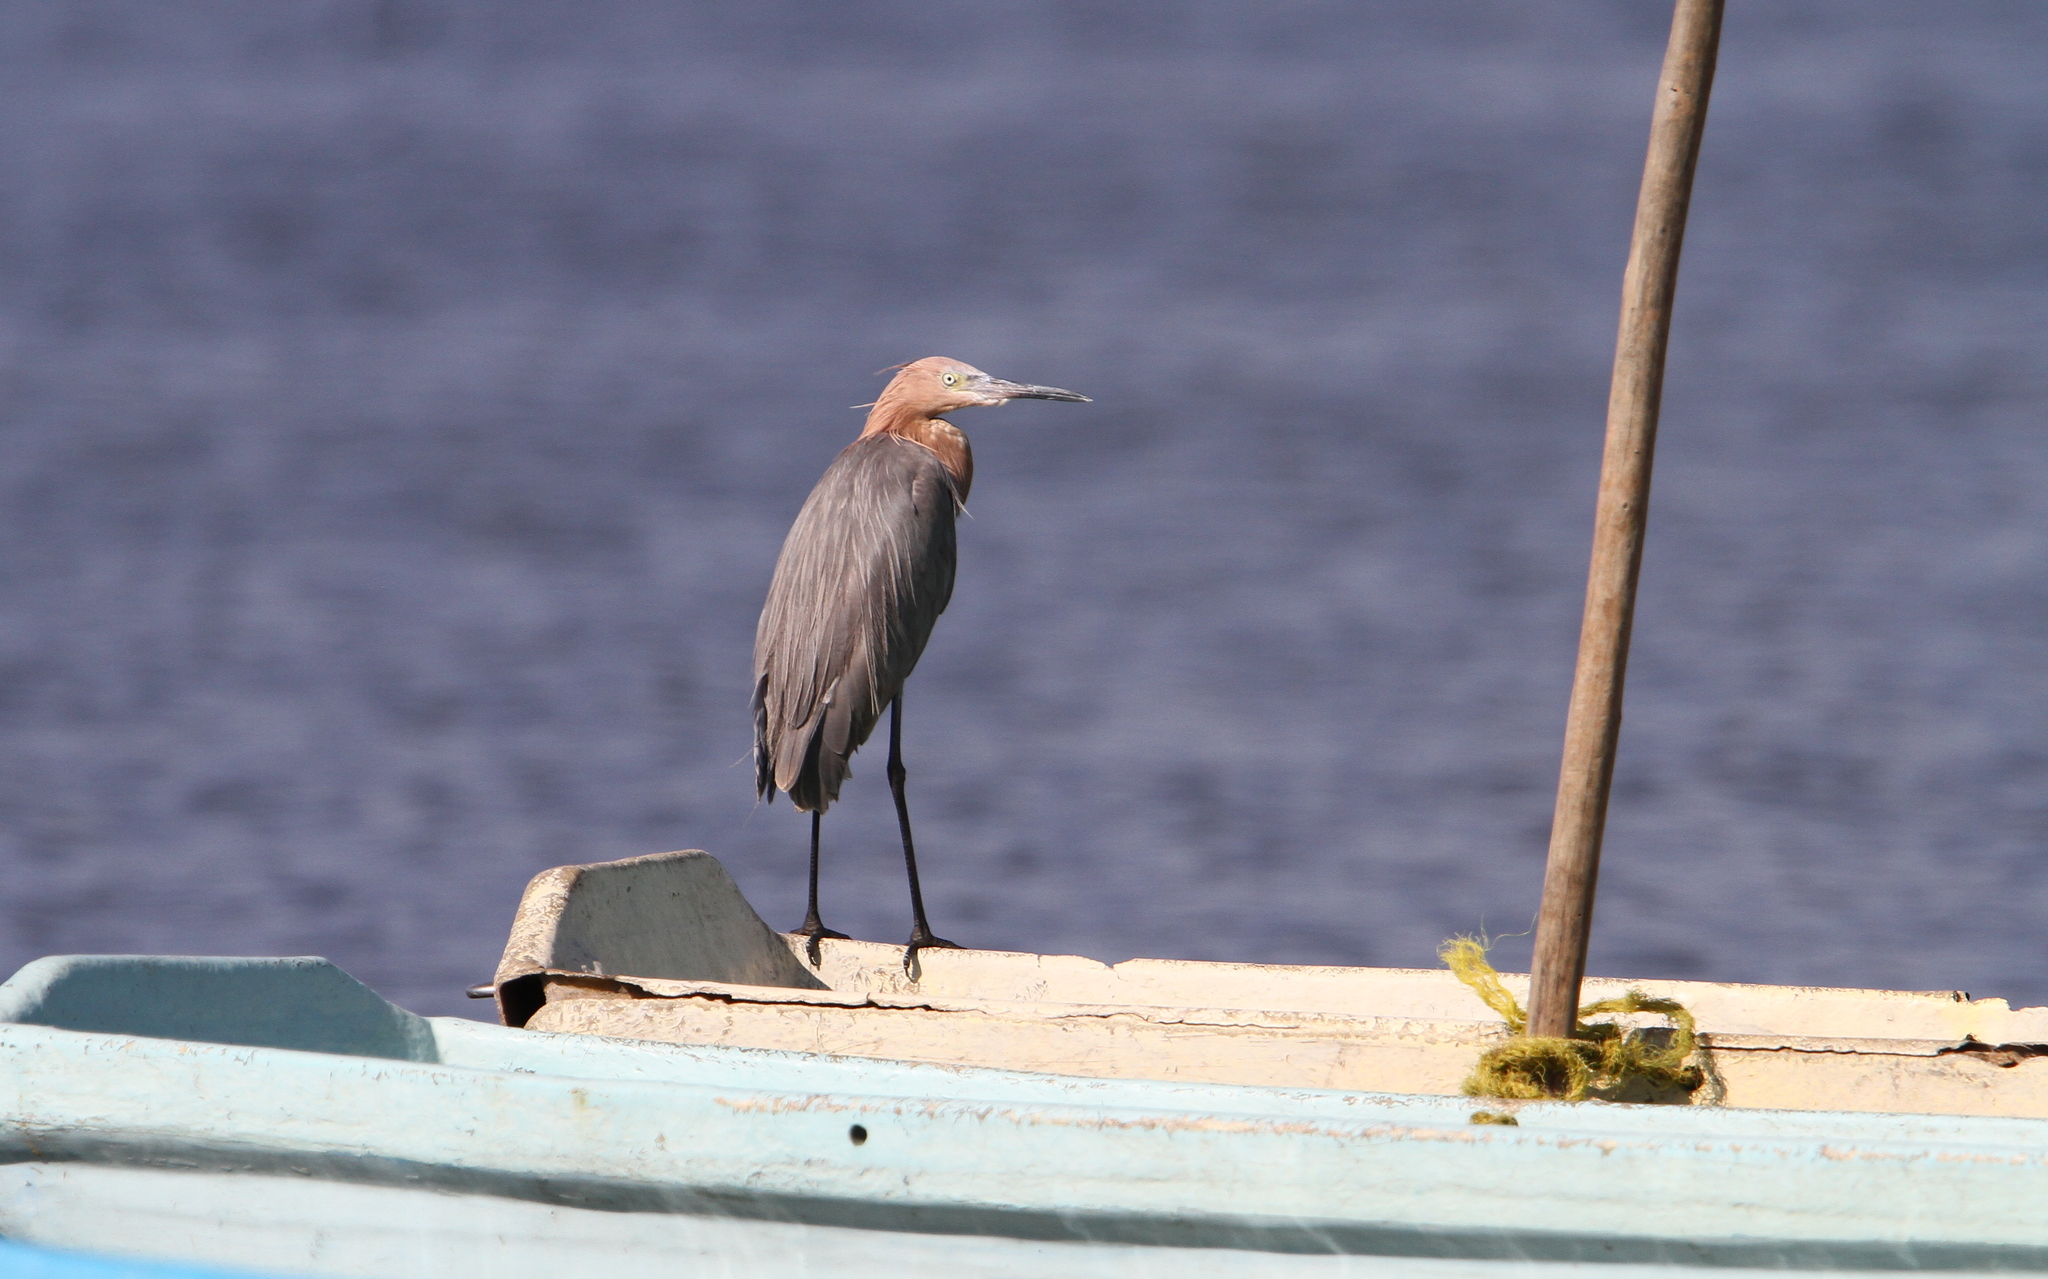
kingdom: Animalia
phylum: Chordata
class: Aves
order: Pelecaniformes
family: Ardeidae
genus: Egretta
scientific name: Egretta rufescens
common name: Reddish egret
